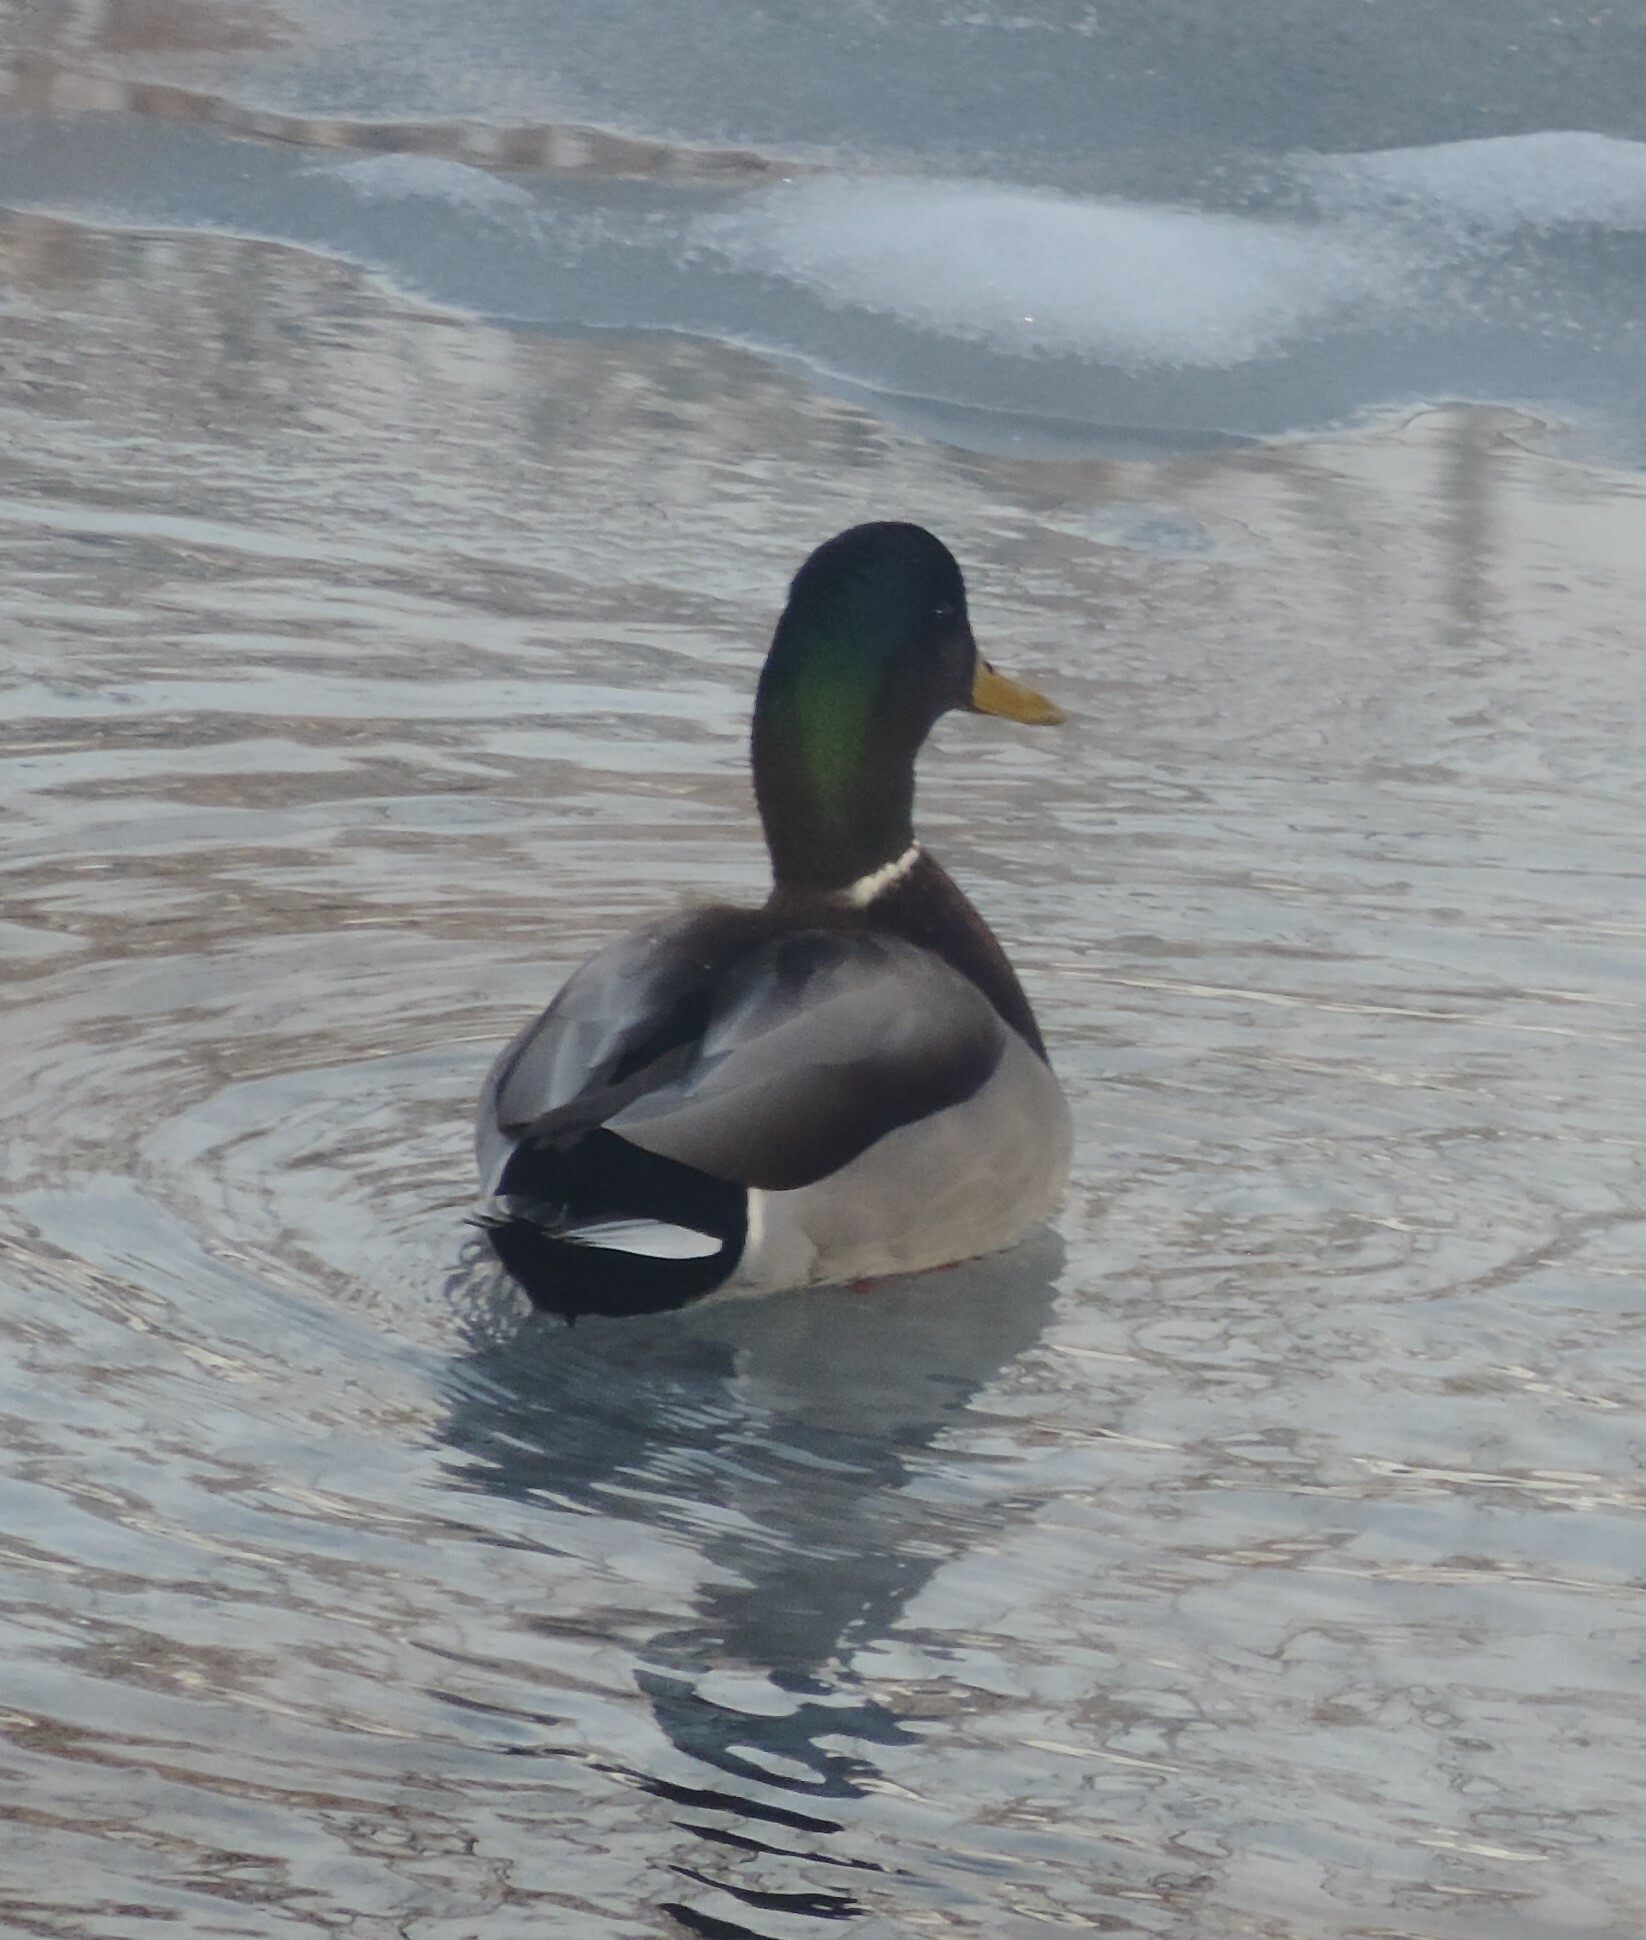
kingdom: Animalia
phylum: Chordata
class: Aves
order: Anseriformes
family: Anatidae
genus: Anas
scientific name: Anas platyrhynchos
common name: Mallard
